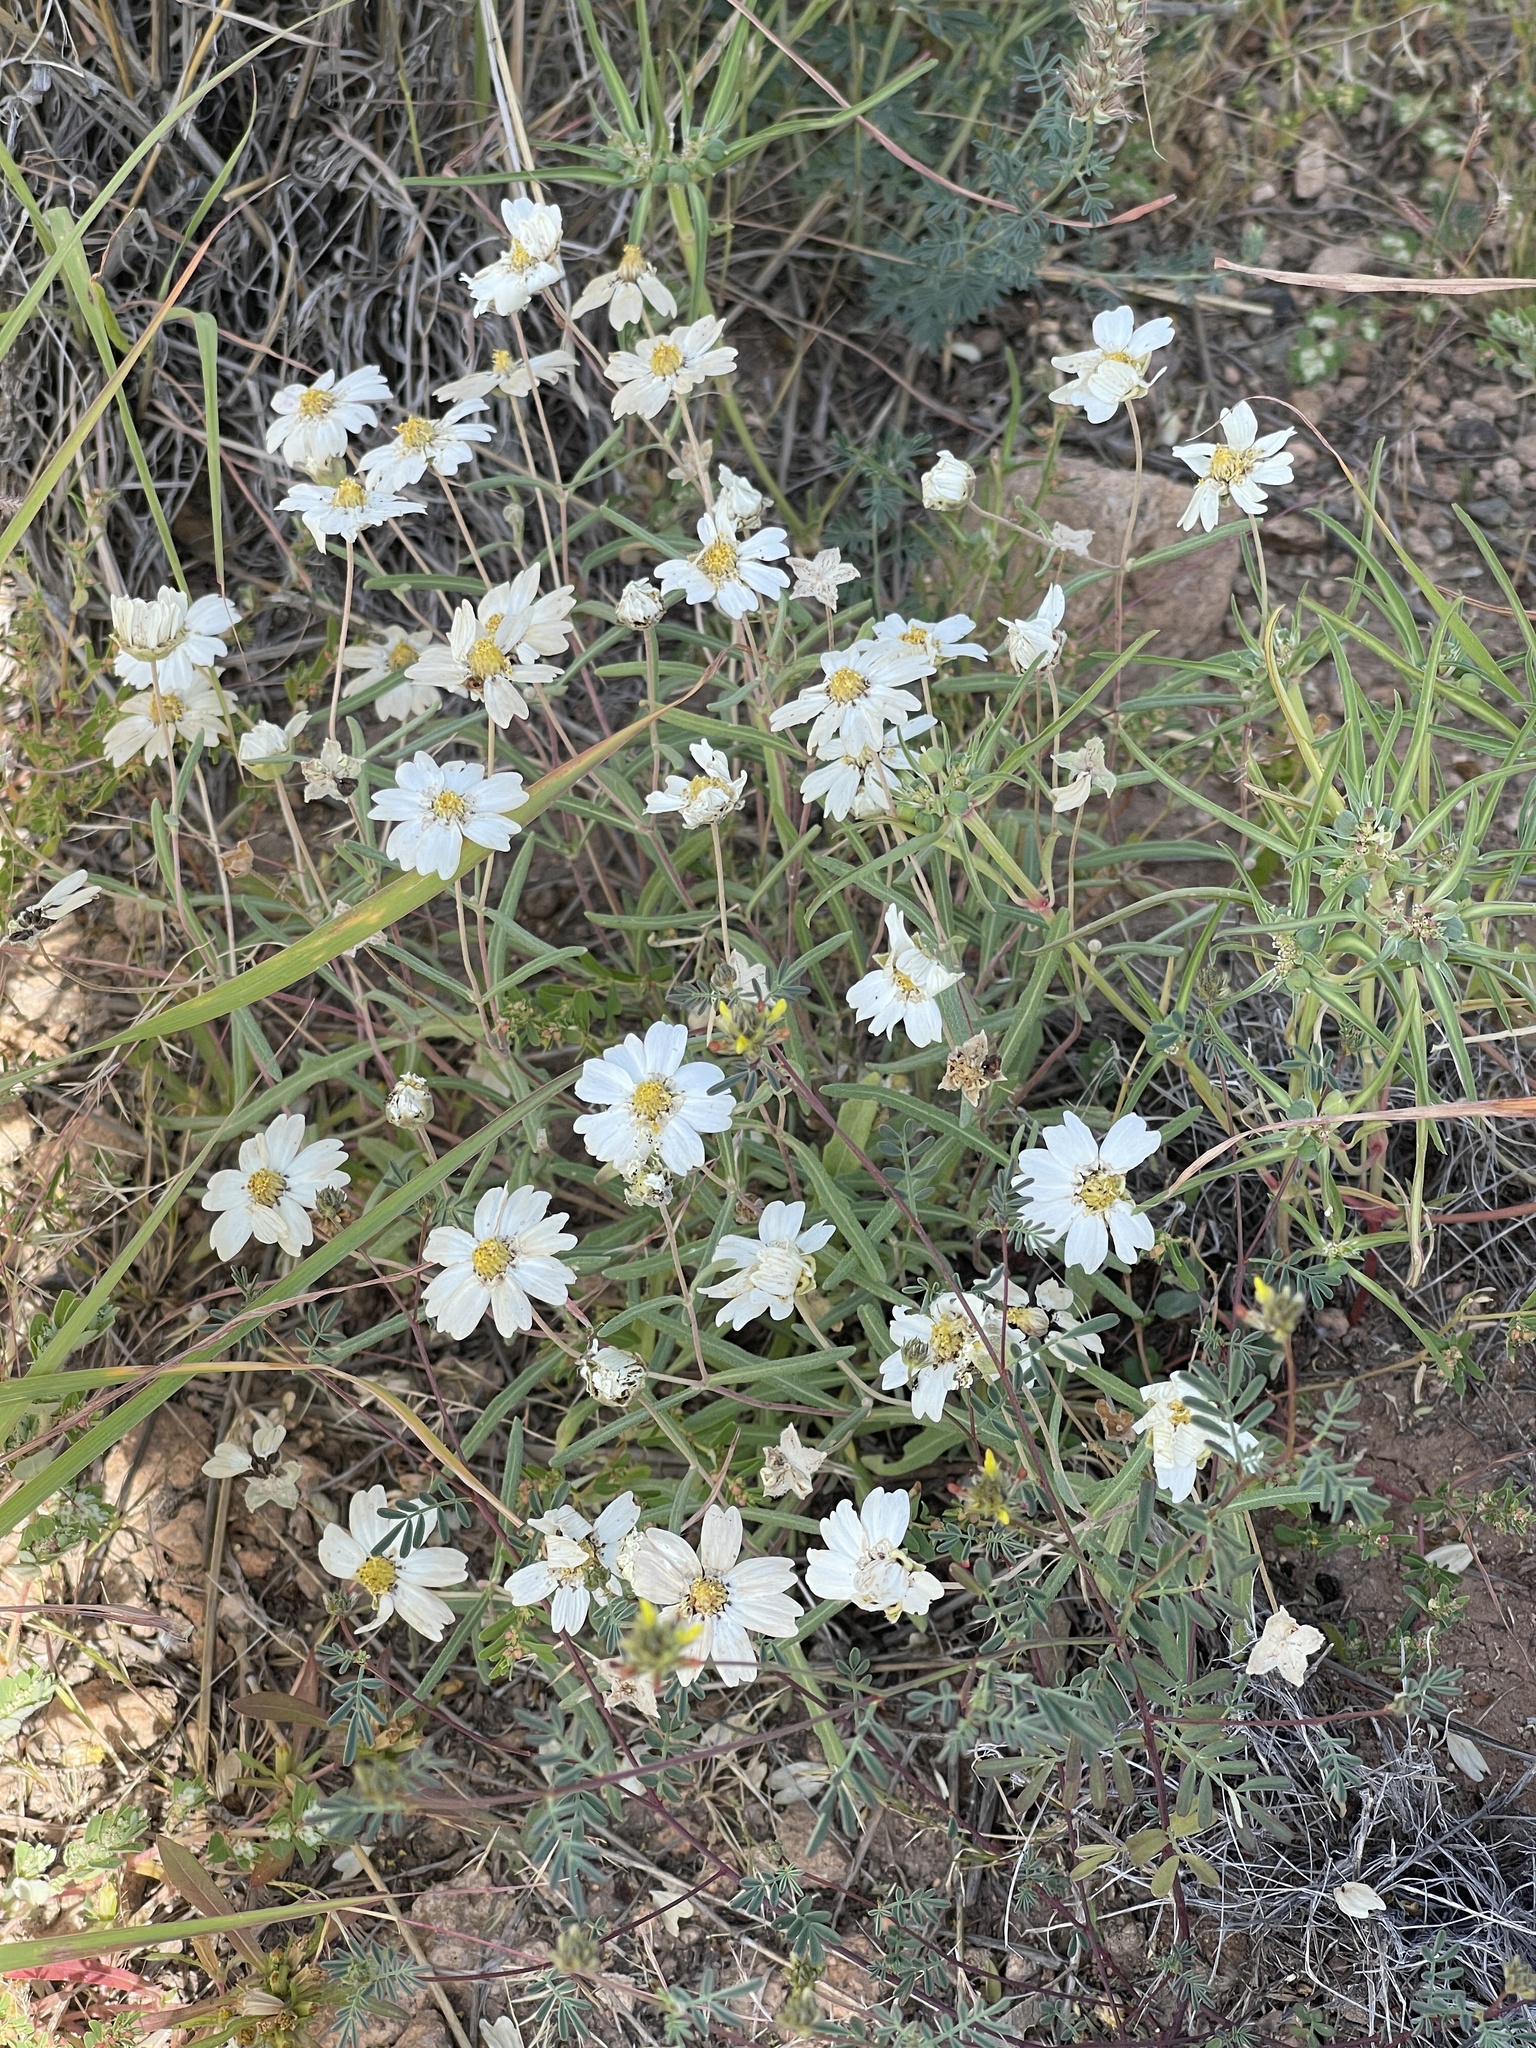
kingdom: Plantae
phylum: Tracheophyta
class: Magnoliopsida
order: Asterales
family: Asteraceae
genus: Melampodium
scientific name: Melampodium leucanthum
